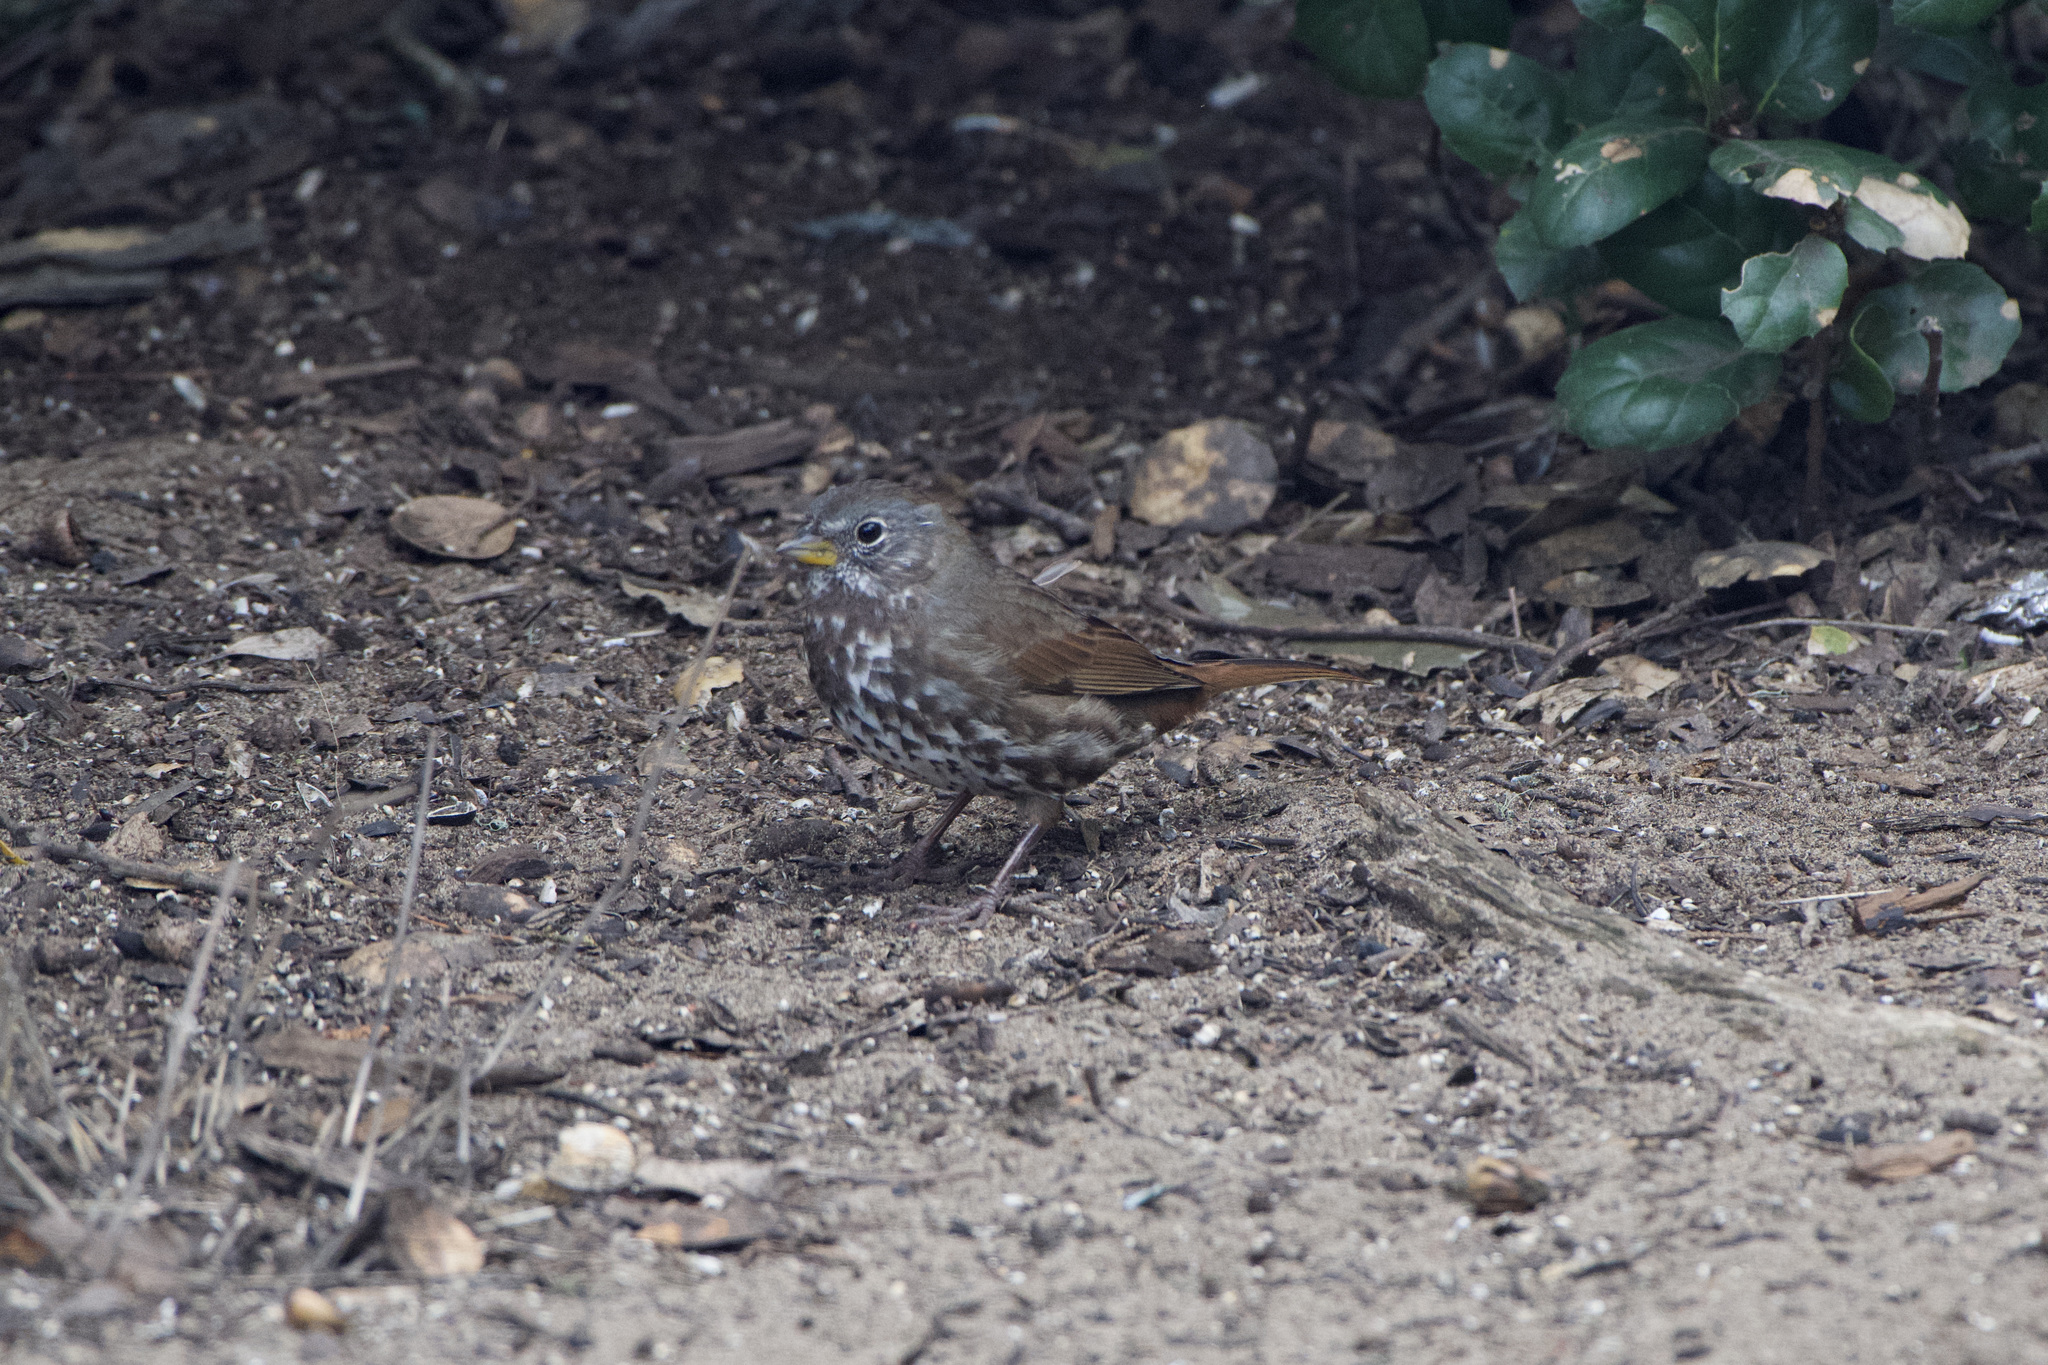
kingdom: Animalia
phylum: Chordata
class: Aves
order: Passeriformes
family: Passerellidae
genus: Passerella
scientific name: Passerella iliaca
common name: Fox sparrow
